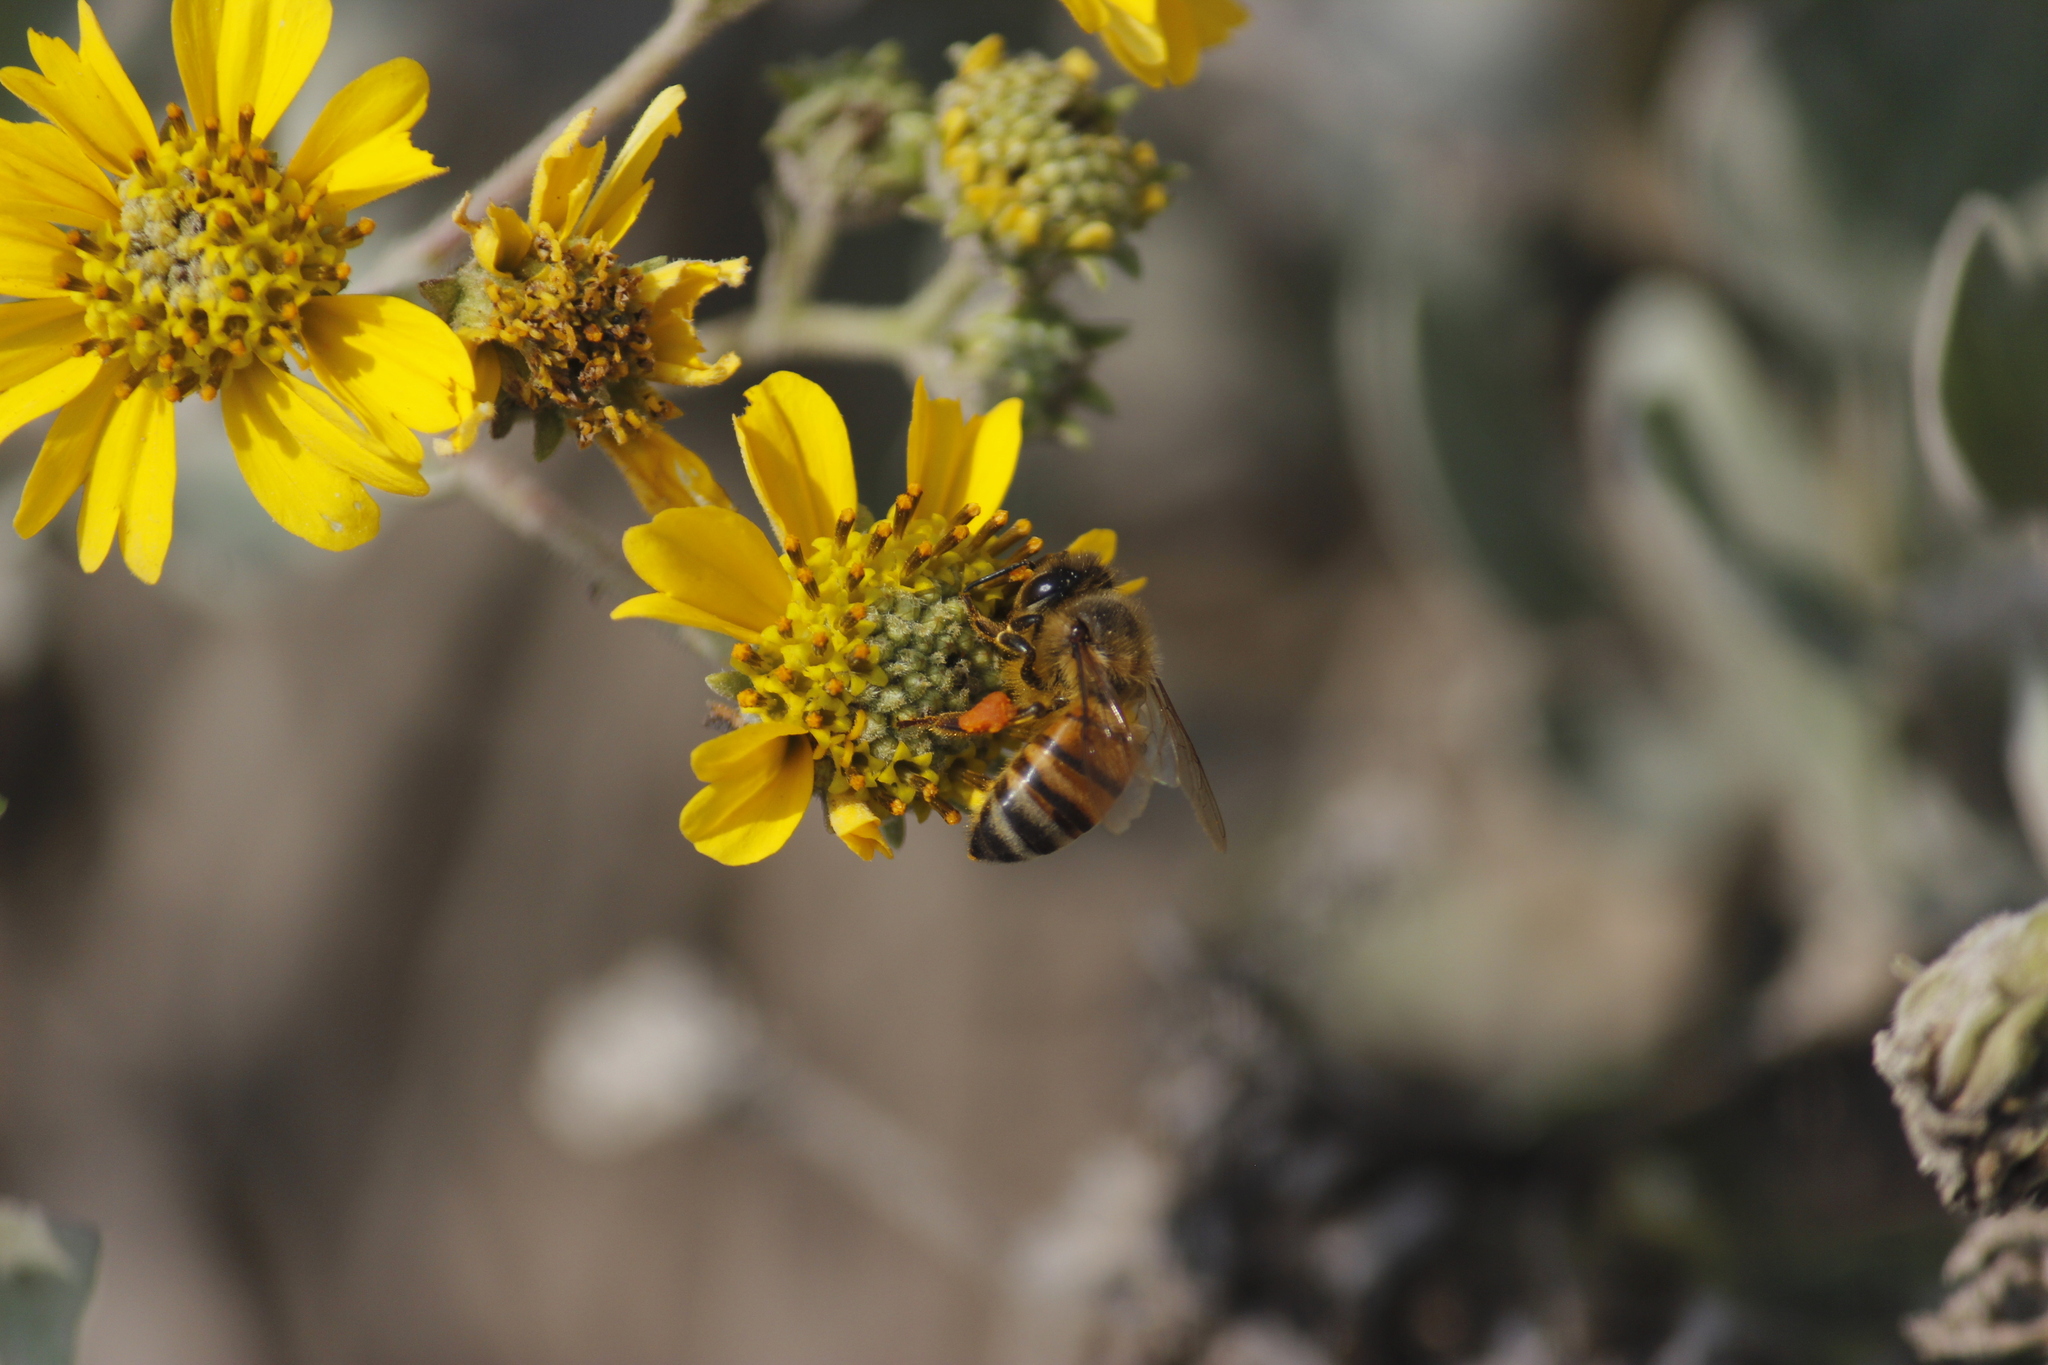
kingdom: Animalia
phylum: Arthropoda
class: Insecta
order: Hymenoptera
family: Apidae
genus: Apis
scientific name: Apis mellifera
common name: Honey bee
